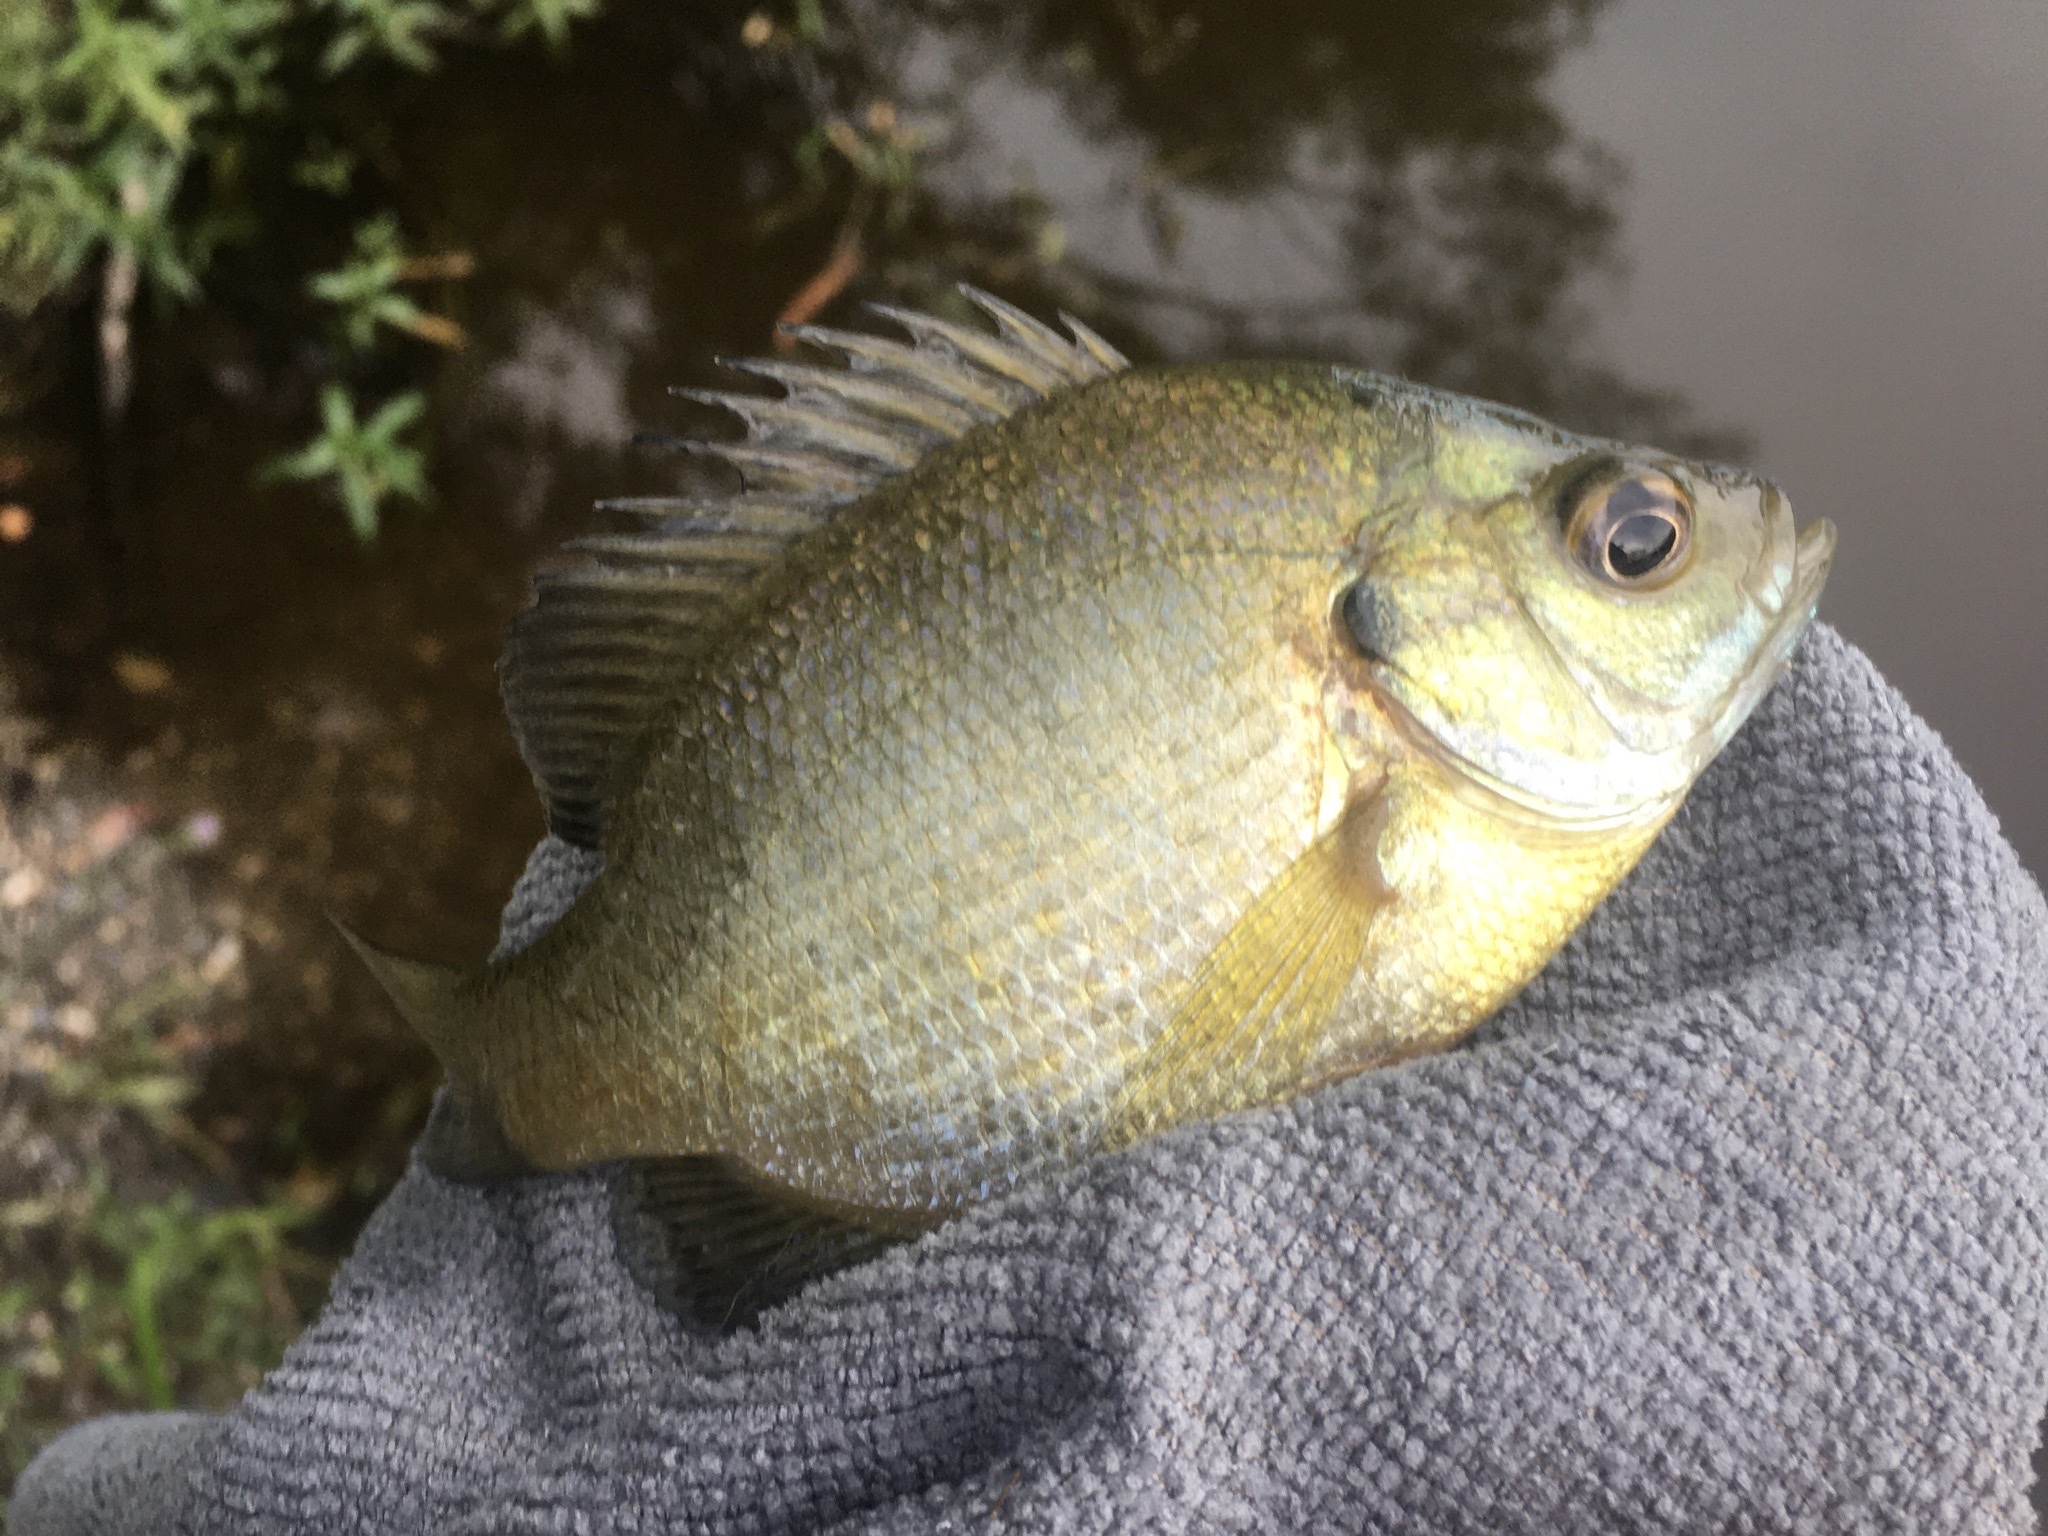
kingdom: Animalia
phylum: Chordata
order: Perciformes
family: Centrarchidae
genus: Lepomis
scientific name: Lepomis macrochirus
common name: Bluegill
